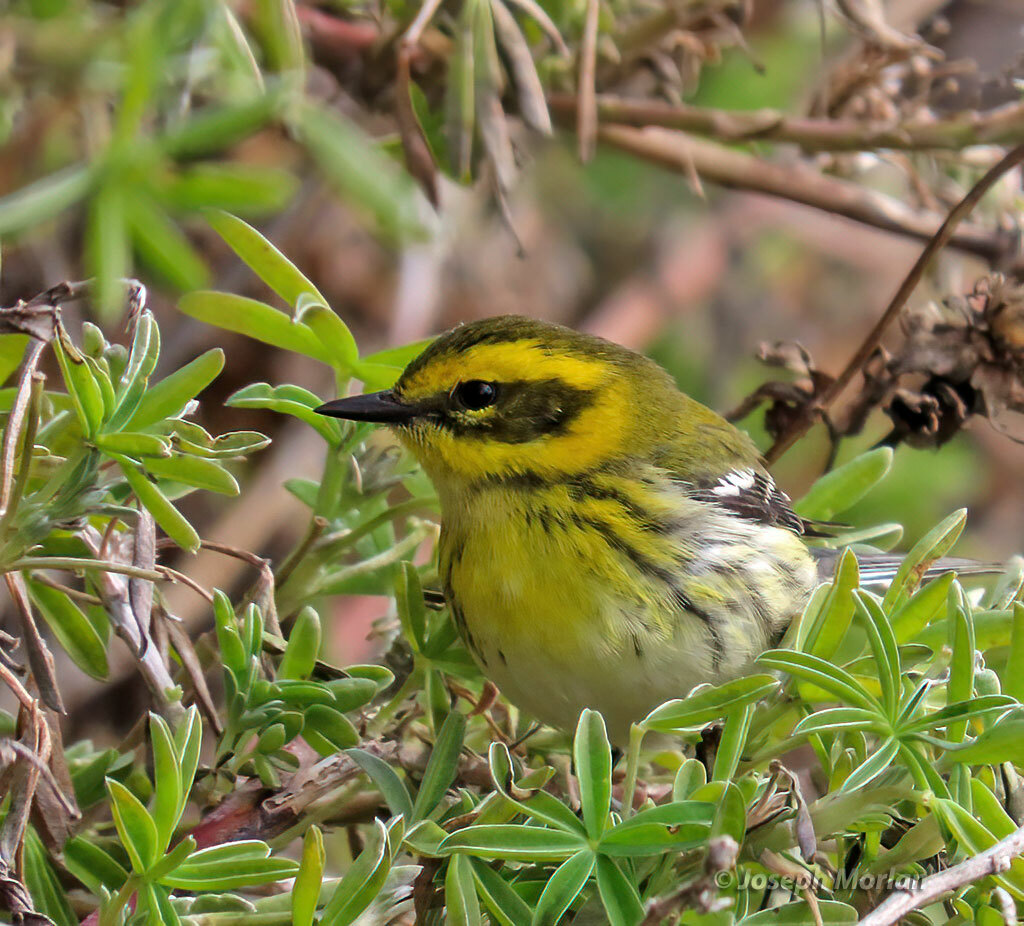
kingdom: Animalia
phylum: Chordata
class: Aves
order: Passeriformes
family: Parulidae
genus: Setophaga
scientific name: Setophaga townsendi
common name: Townsend's warbler
